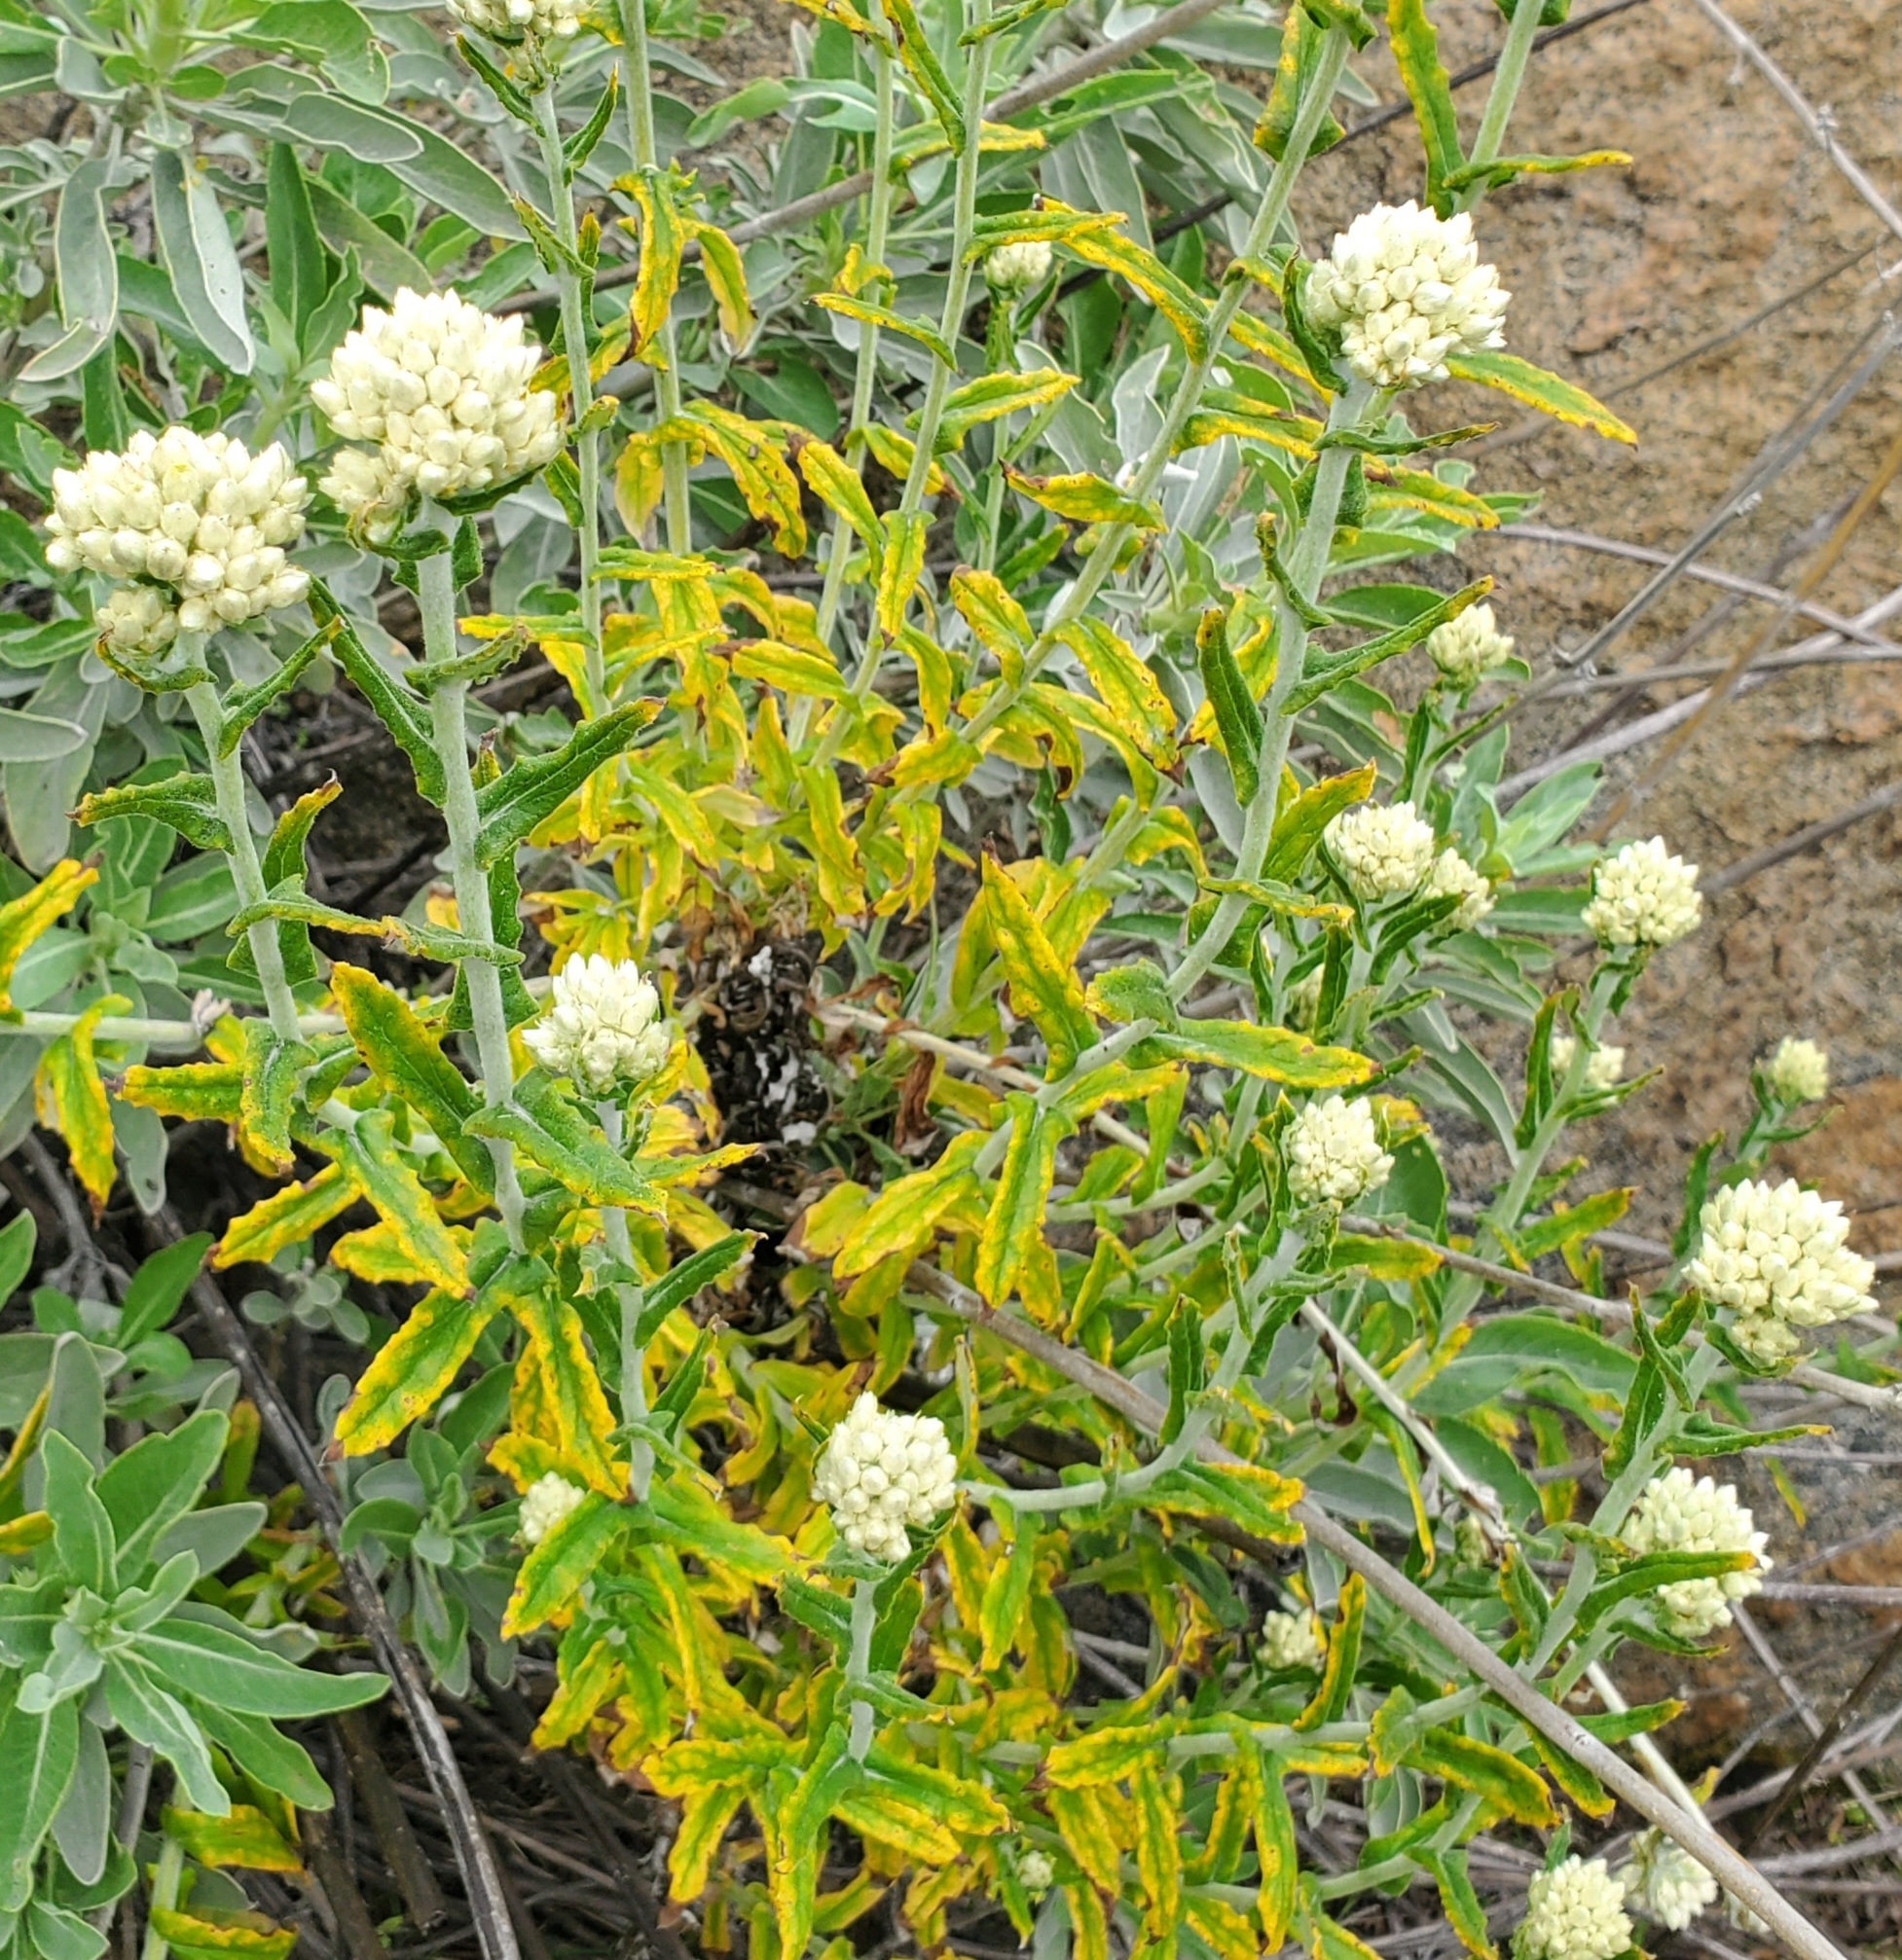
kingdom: Plantae
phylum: Tracheophyta
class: Magnoliopsida
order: Asterales
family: Asteraceae
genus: Pseudognaphalium
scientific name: Pseudognaphalium biolettii
